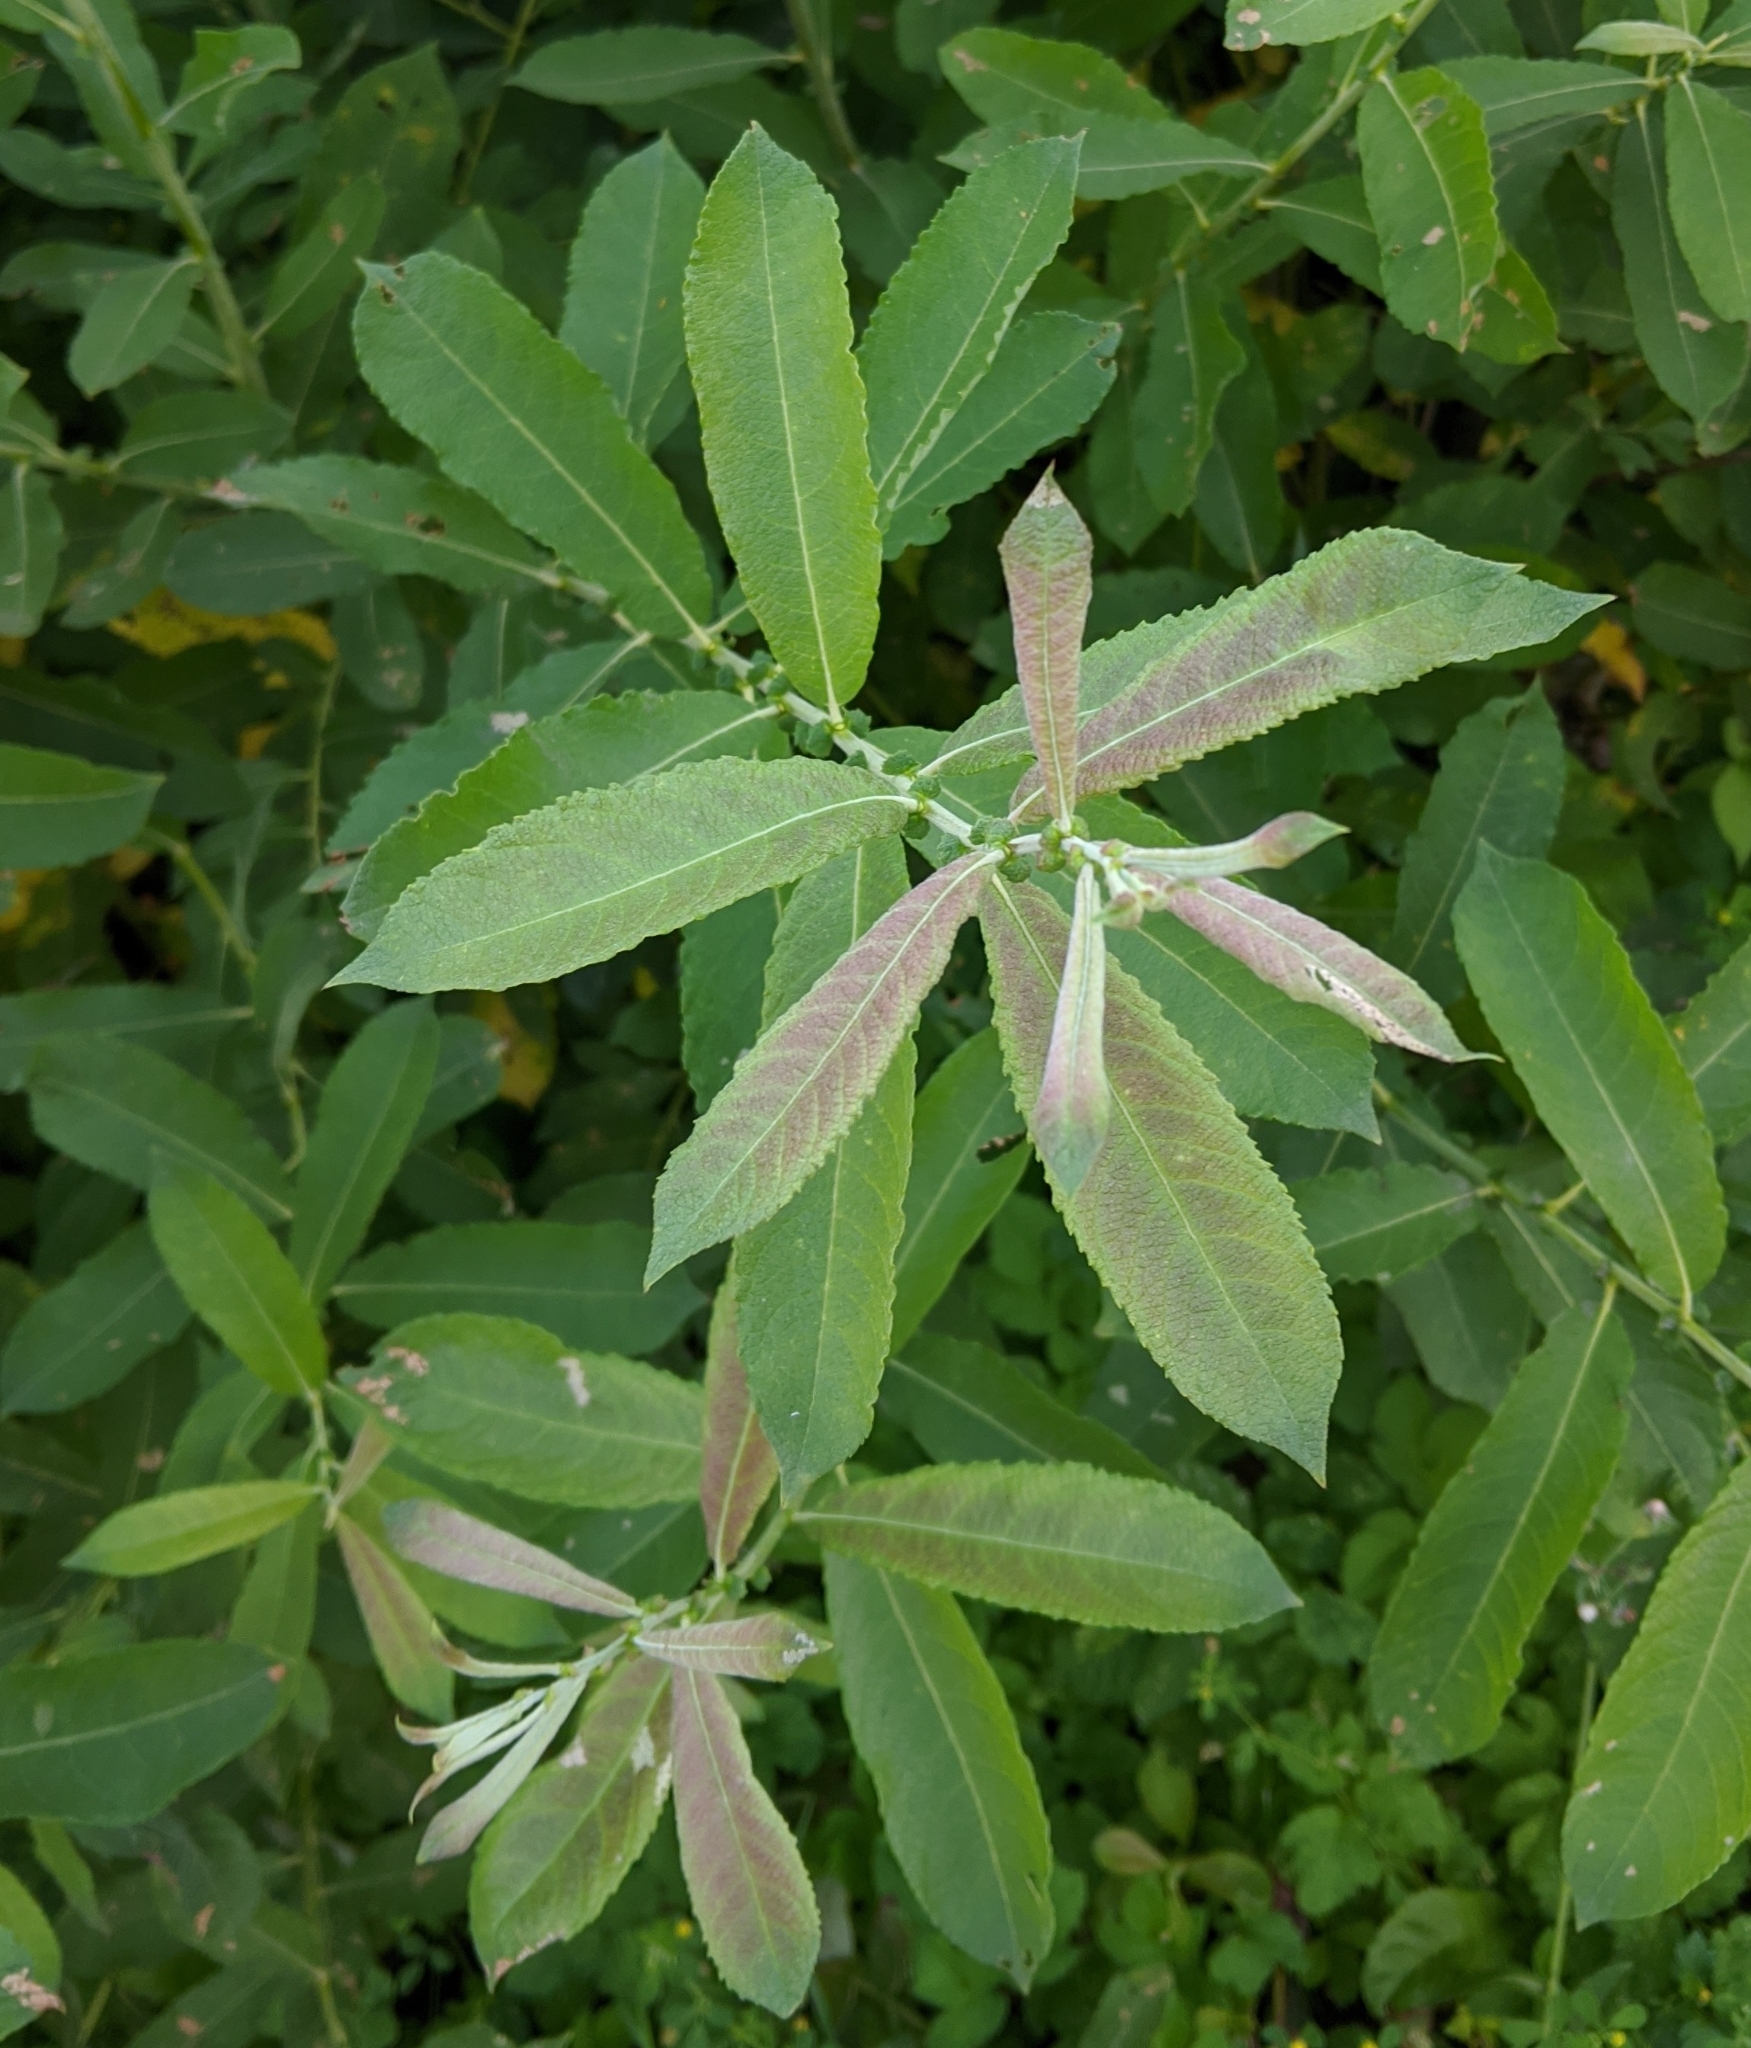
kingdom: Plantae
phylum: Tracheophyta
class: Magnoliopsida
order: Malpighiales
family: Salicaceae
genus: Salix
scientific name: Salix cinerea
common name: Common sallow
